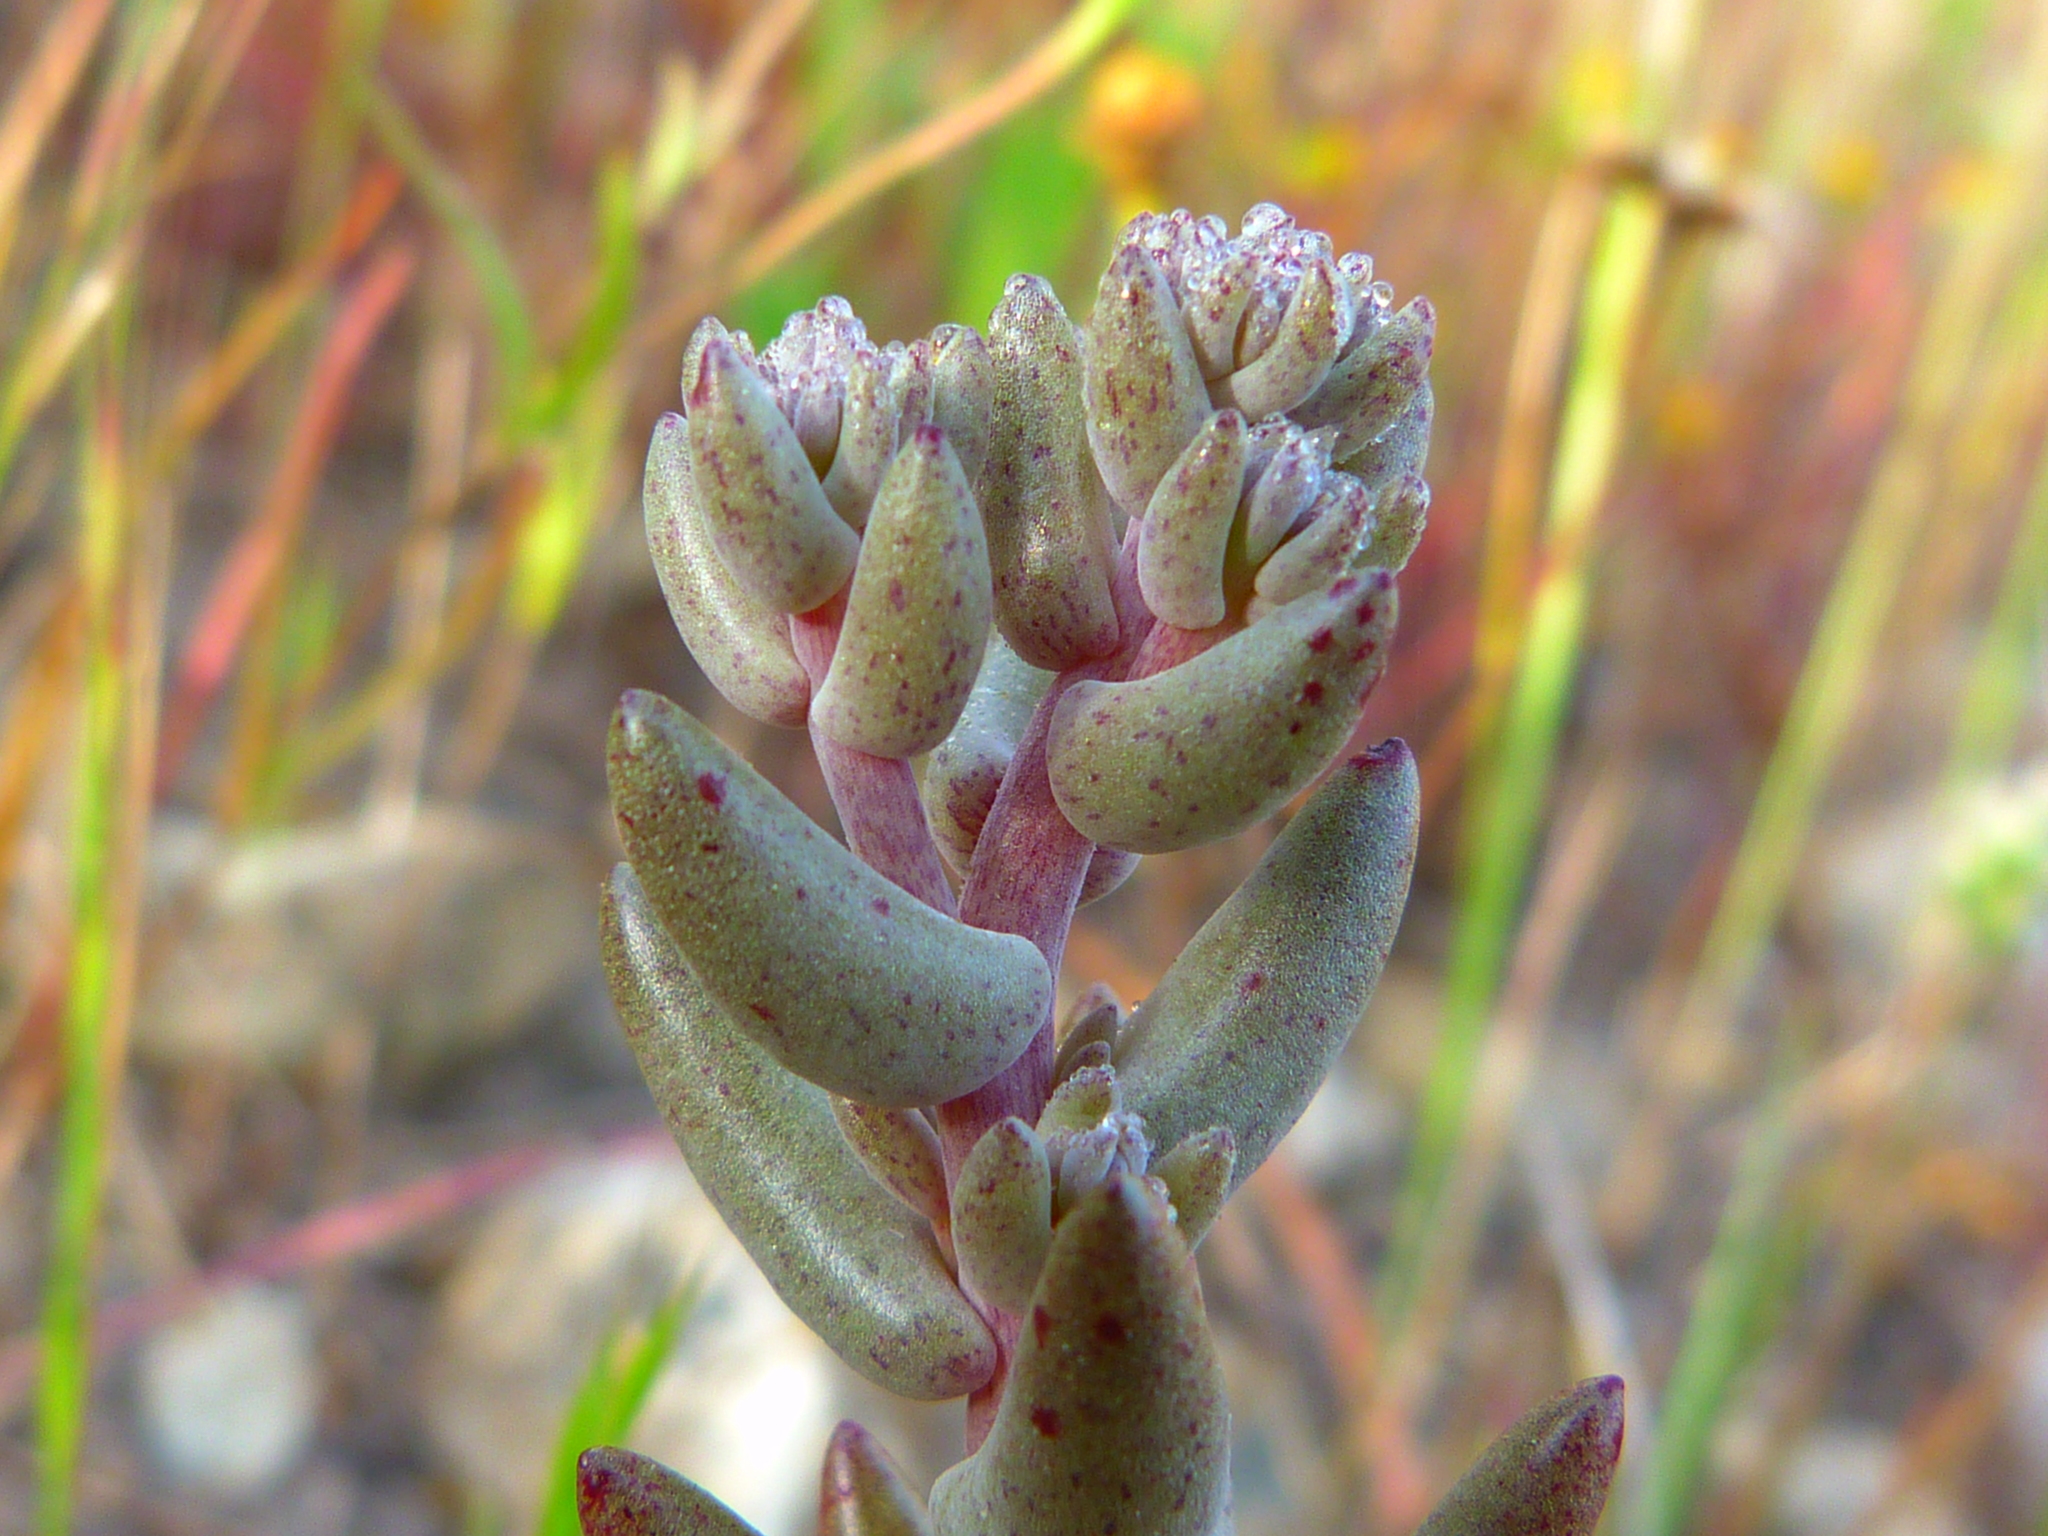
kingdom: Plantae
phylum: Tracheophyta
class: Magnoliopsida
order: Saxifragales
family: Crassulaceae
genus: Dudleya
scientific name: Dudleya blochmaniae
